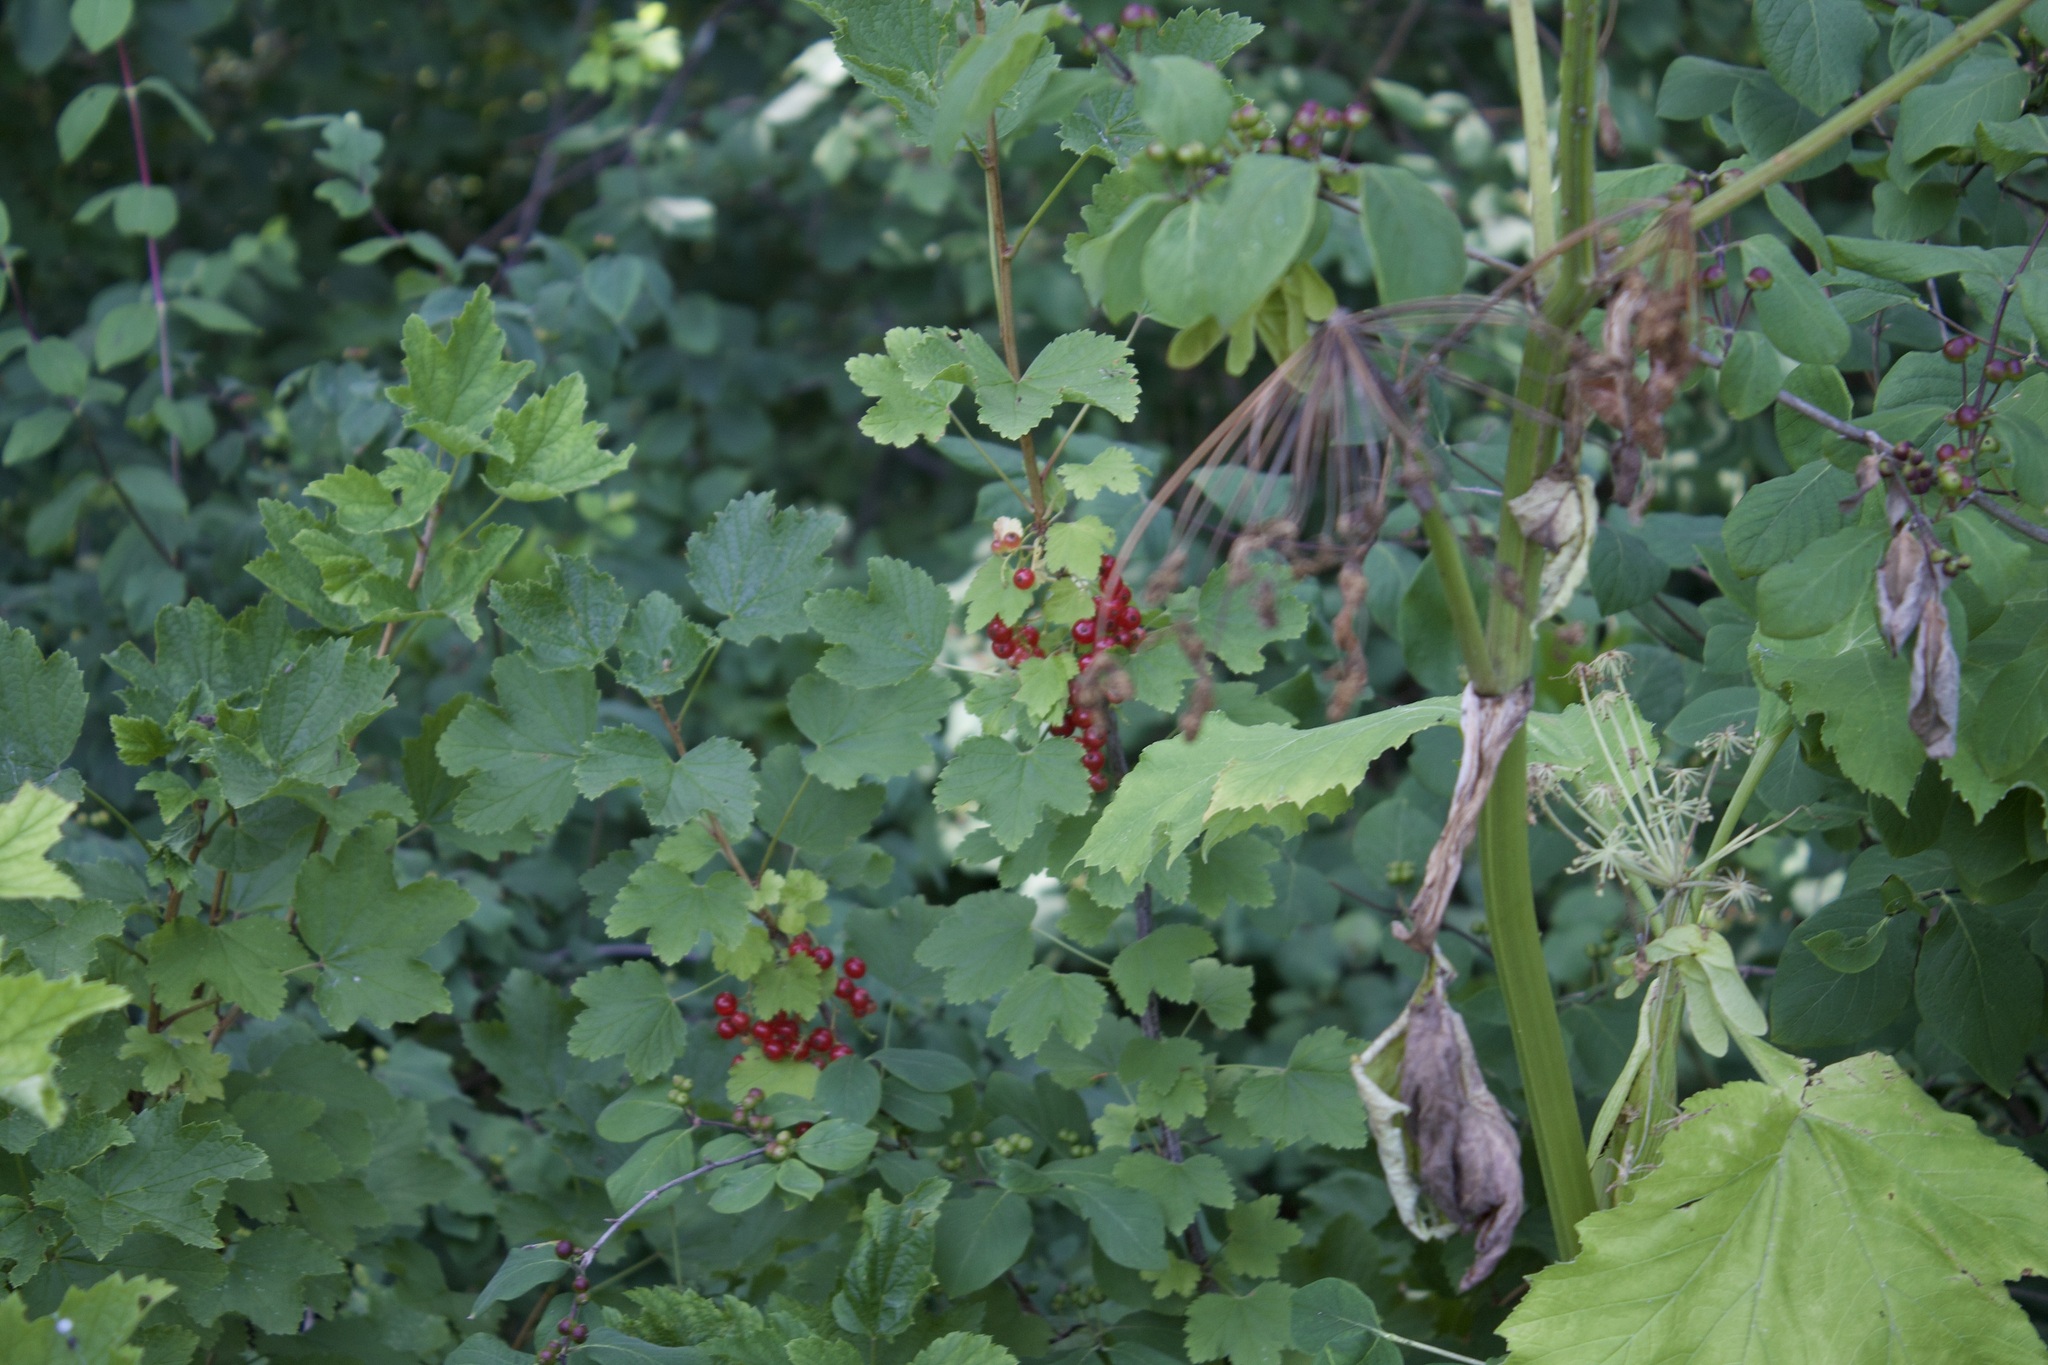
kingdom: Plantae
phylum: Tracheophyta
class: Magnoliopsida
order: Saxifragales
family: Grossulariaceae
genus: Ribes
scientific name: Ribes rubrum
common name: Red currant
